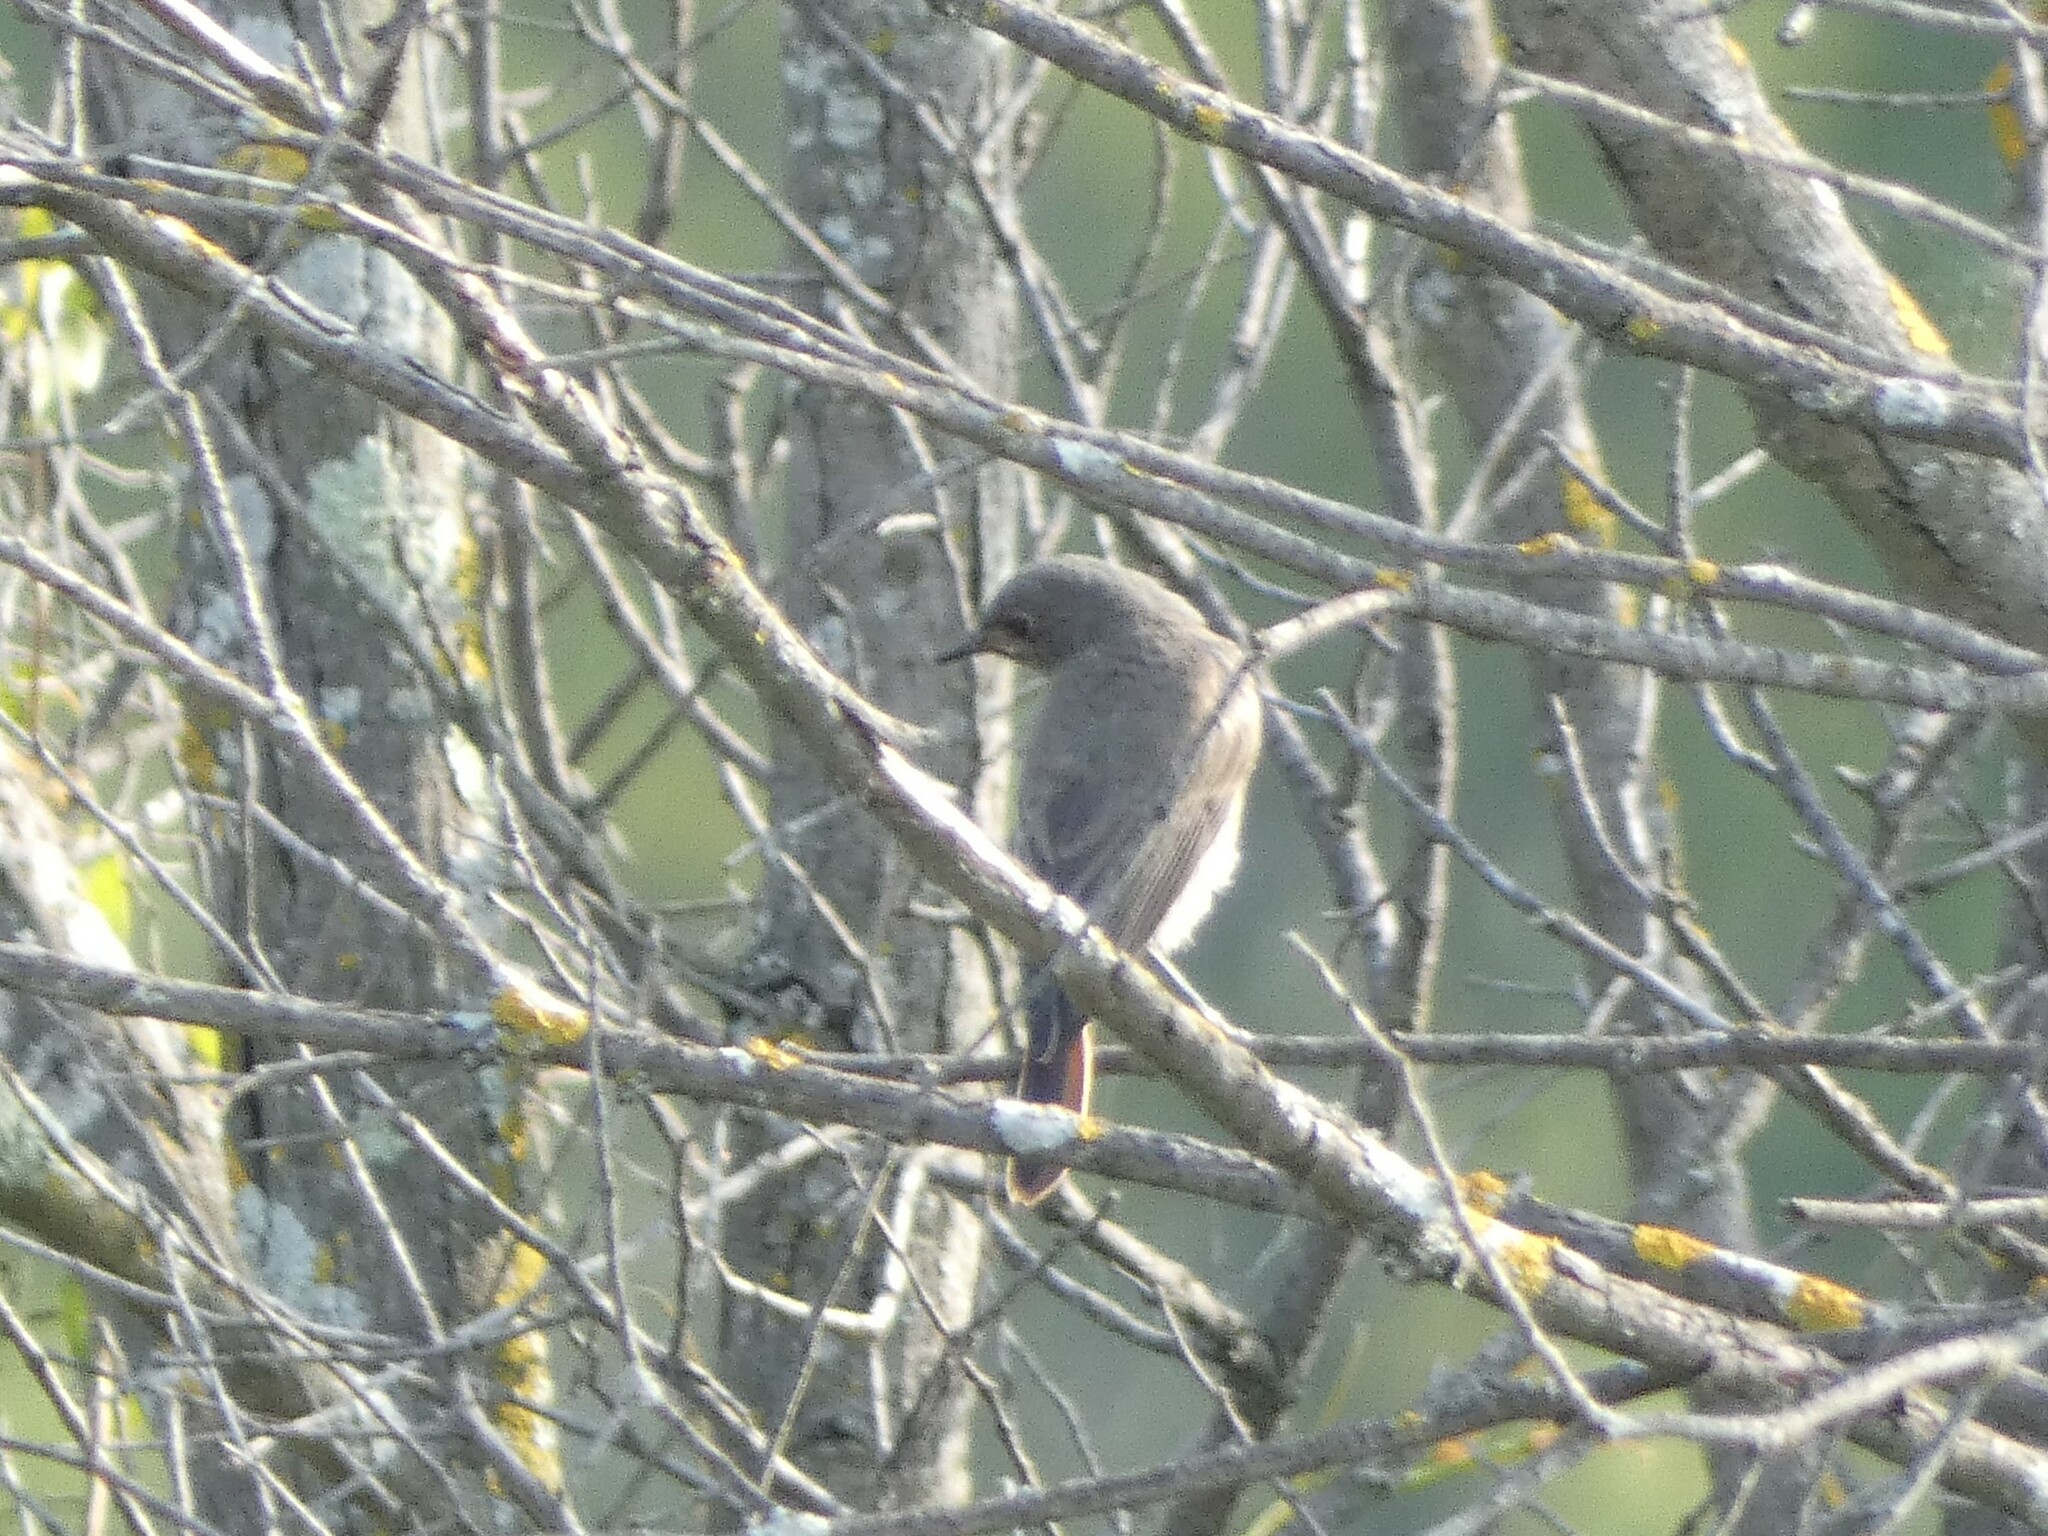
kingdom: Animalia
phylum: Chordata
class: Aves
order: Passeriformes
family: Muscicapidae
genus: Phoenicurus
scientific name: Phoenicurus ochruros
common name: Black redstart
